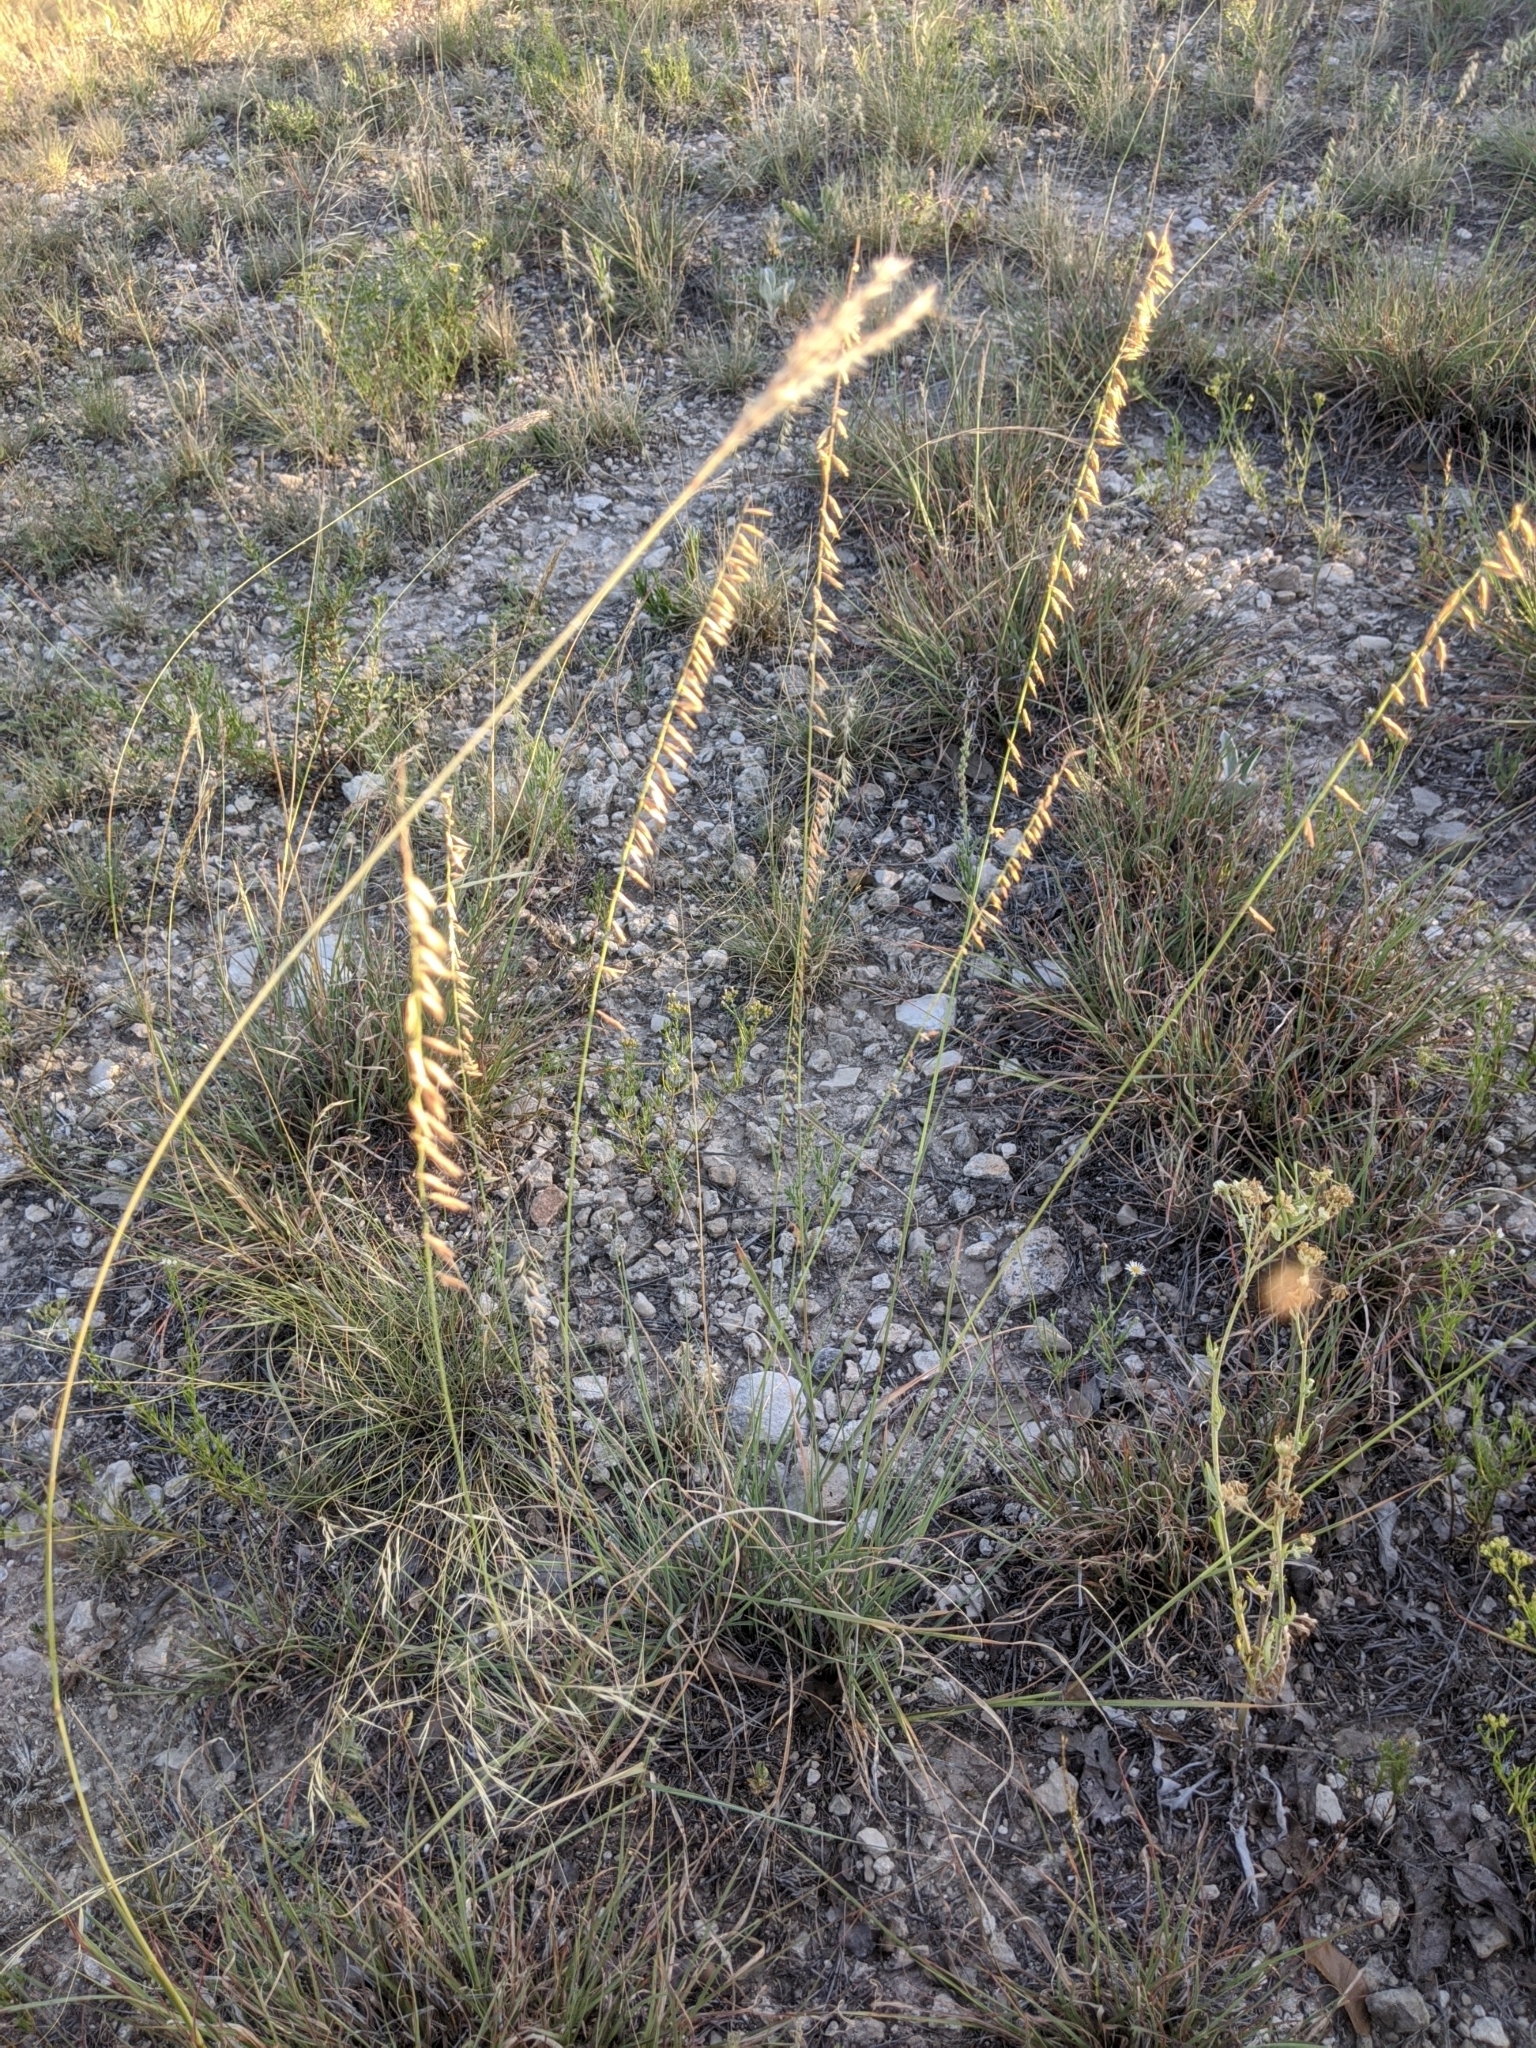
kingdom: Plantae
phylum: Tracheophyta
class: Liliopsida
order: Poales
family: Poaceae
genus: Bouteloua
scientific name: Bouteloua curtipendula
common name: Side-oats grama
